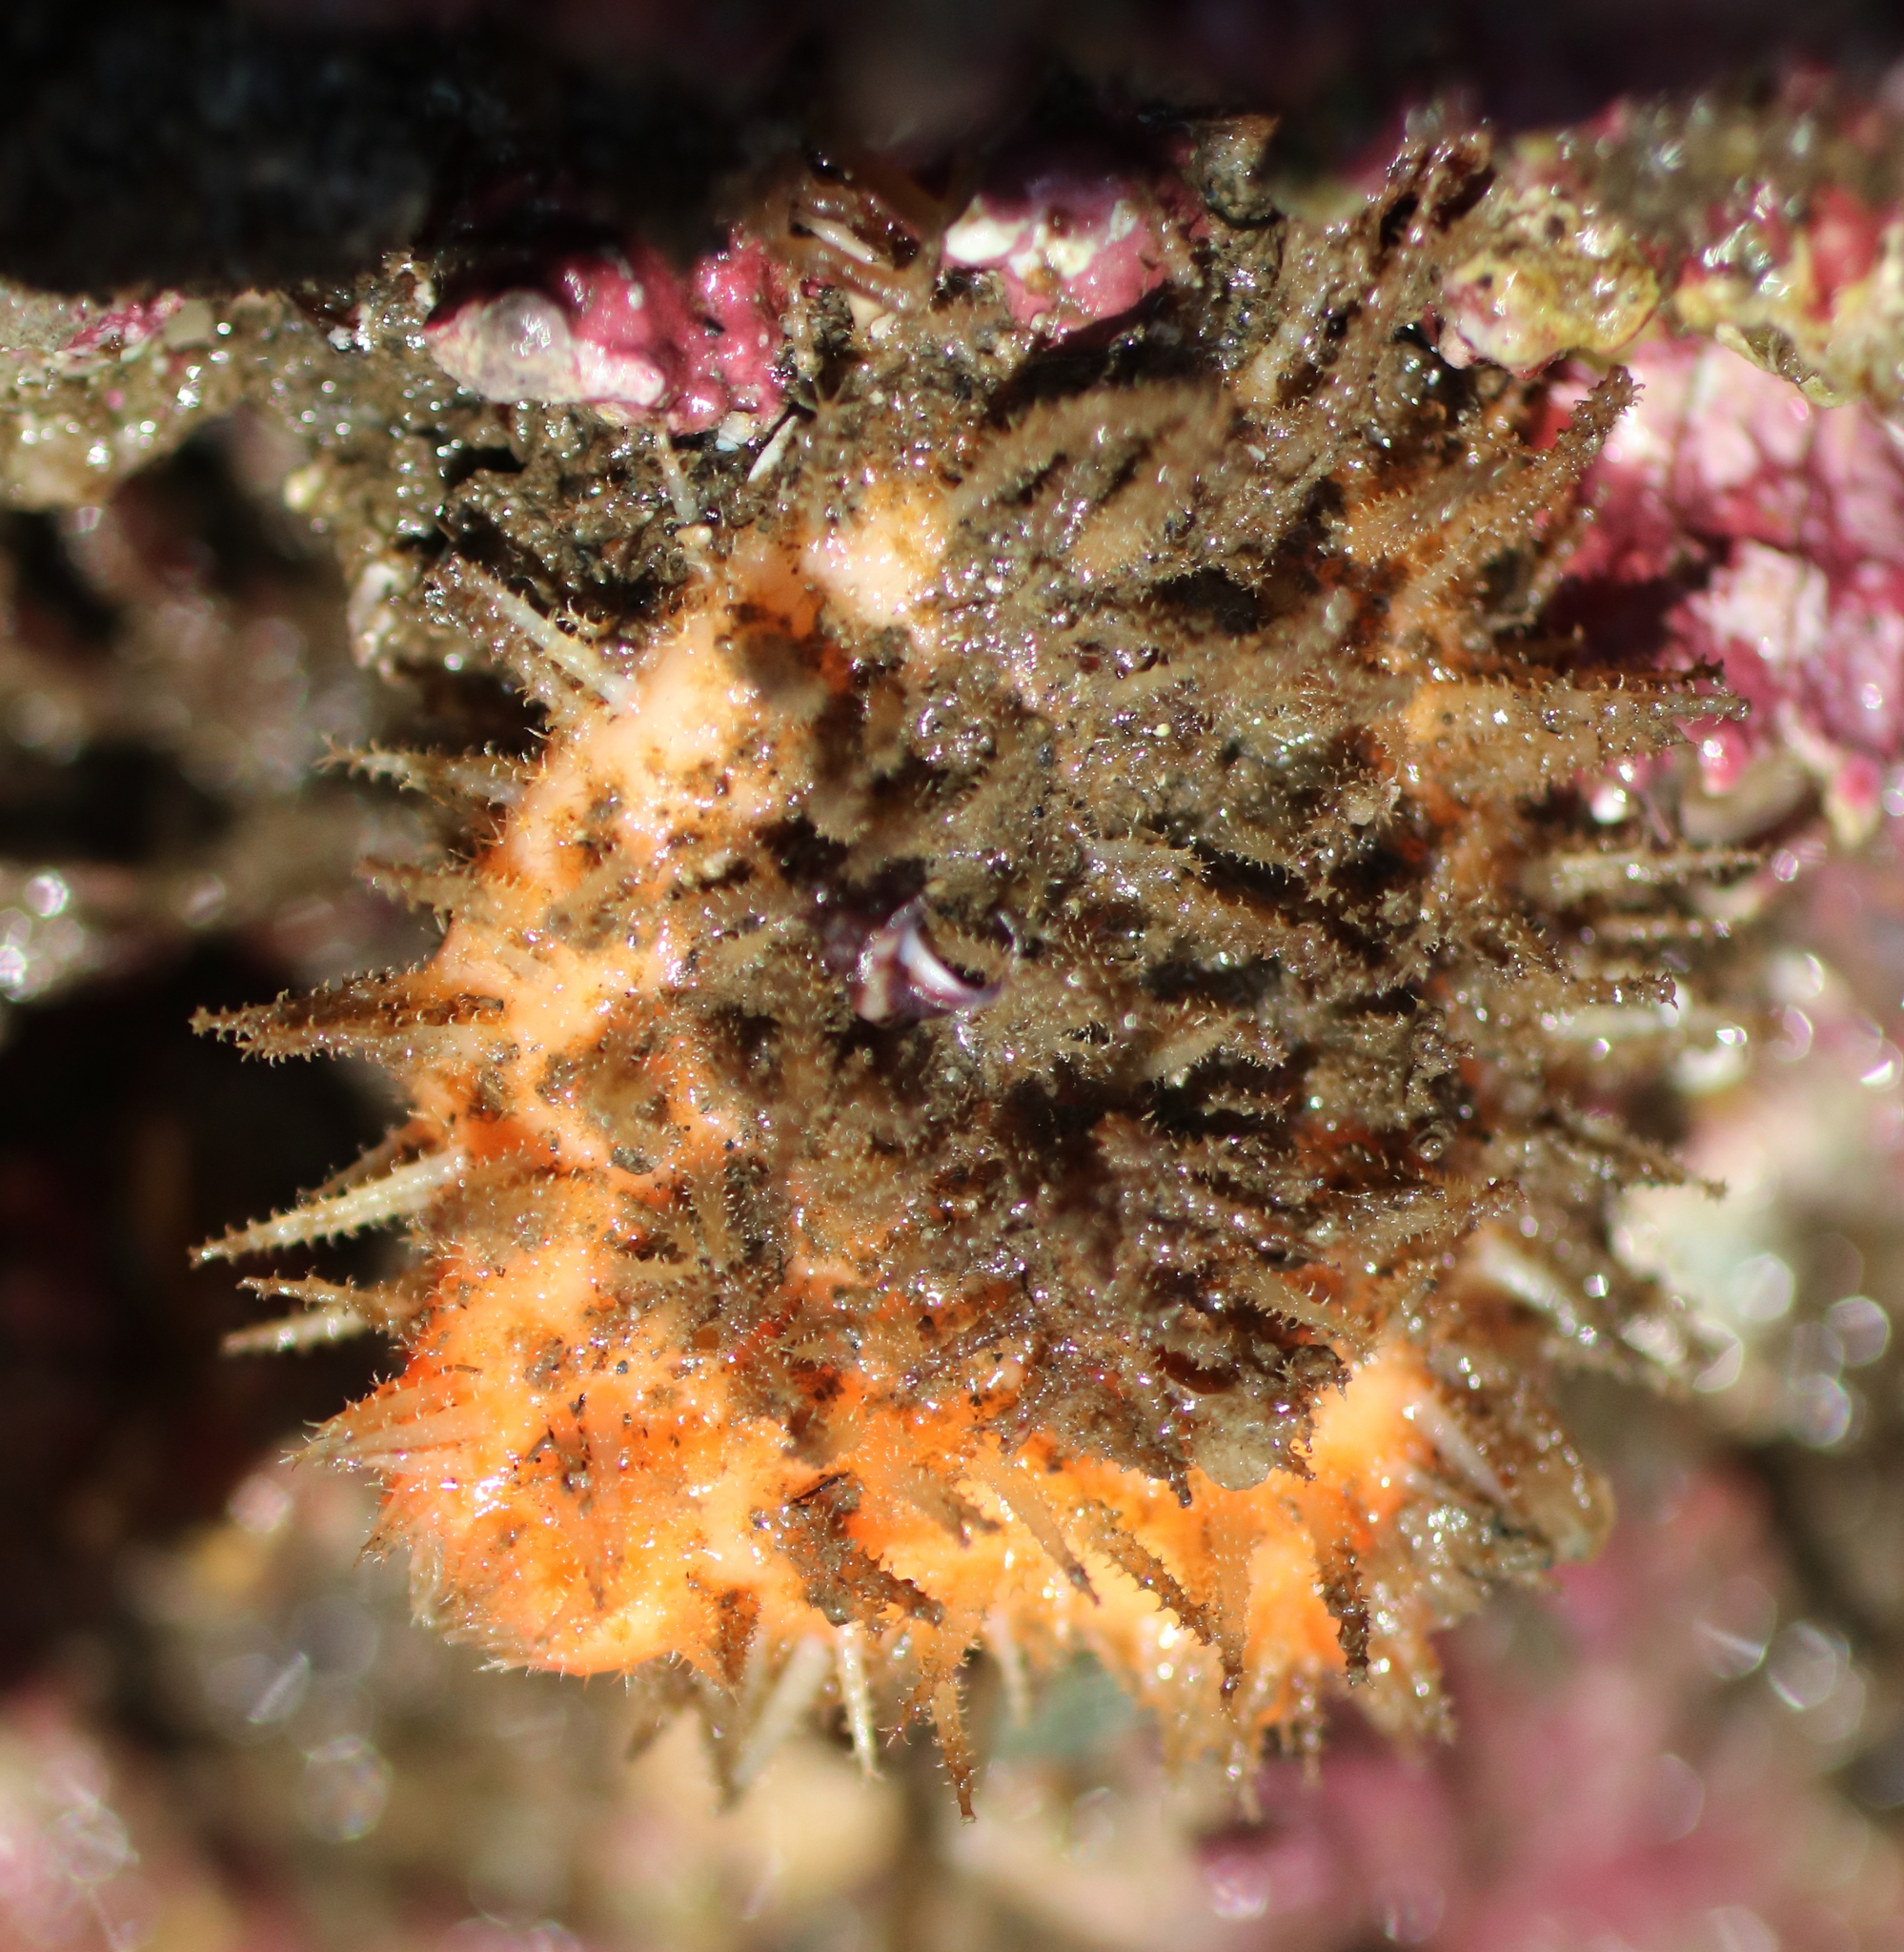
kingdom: Animalia
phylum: Chordata
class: Ascidiacea
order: Stolidobranchia
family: Pyuridae
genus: Halocynthia
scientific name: Halocynthia igaboja
